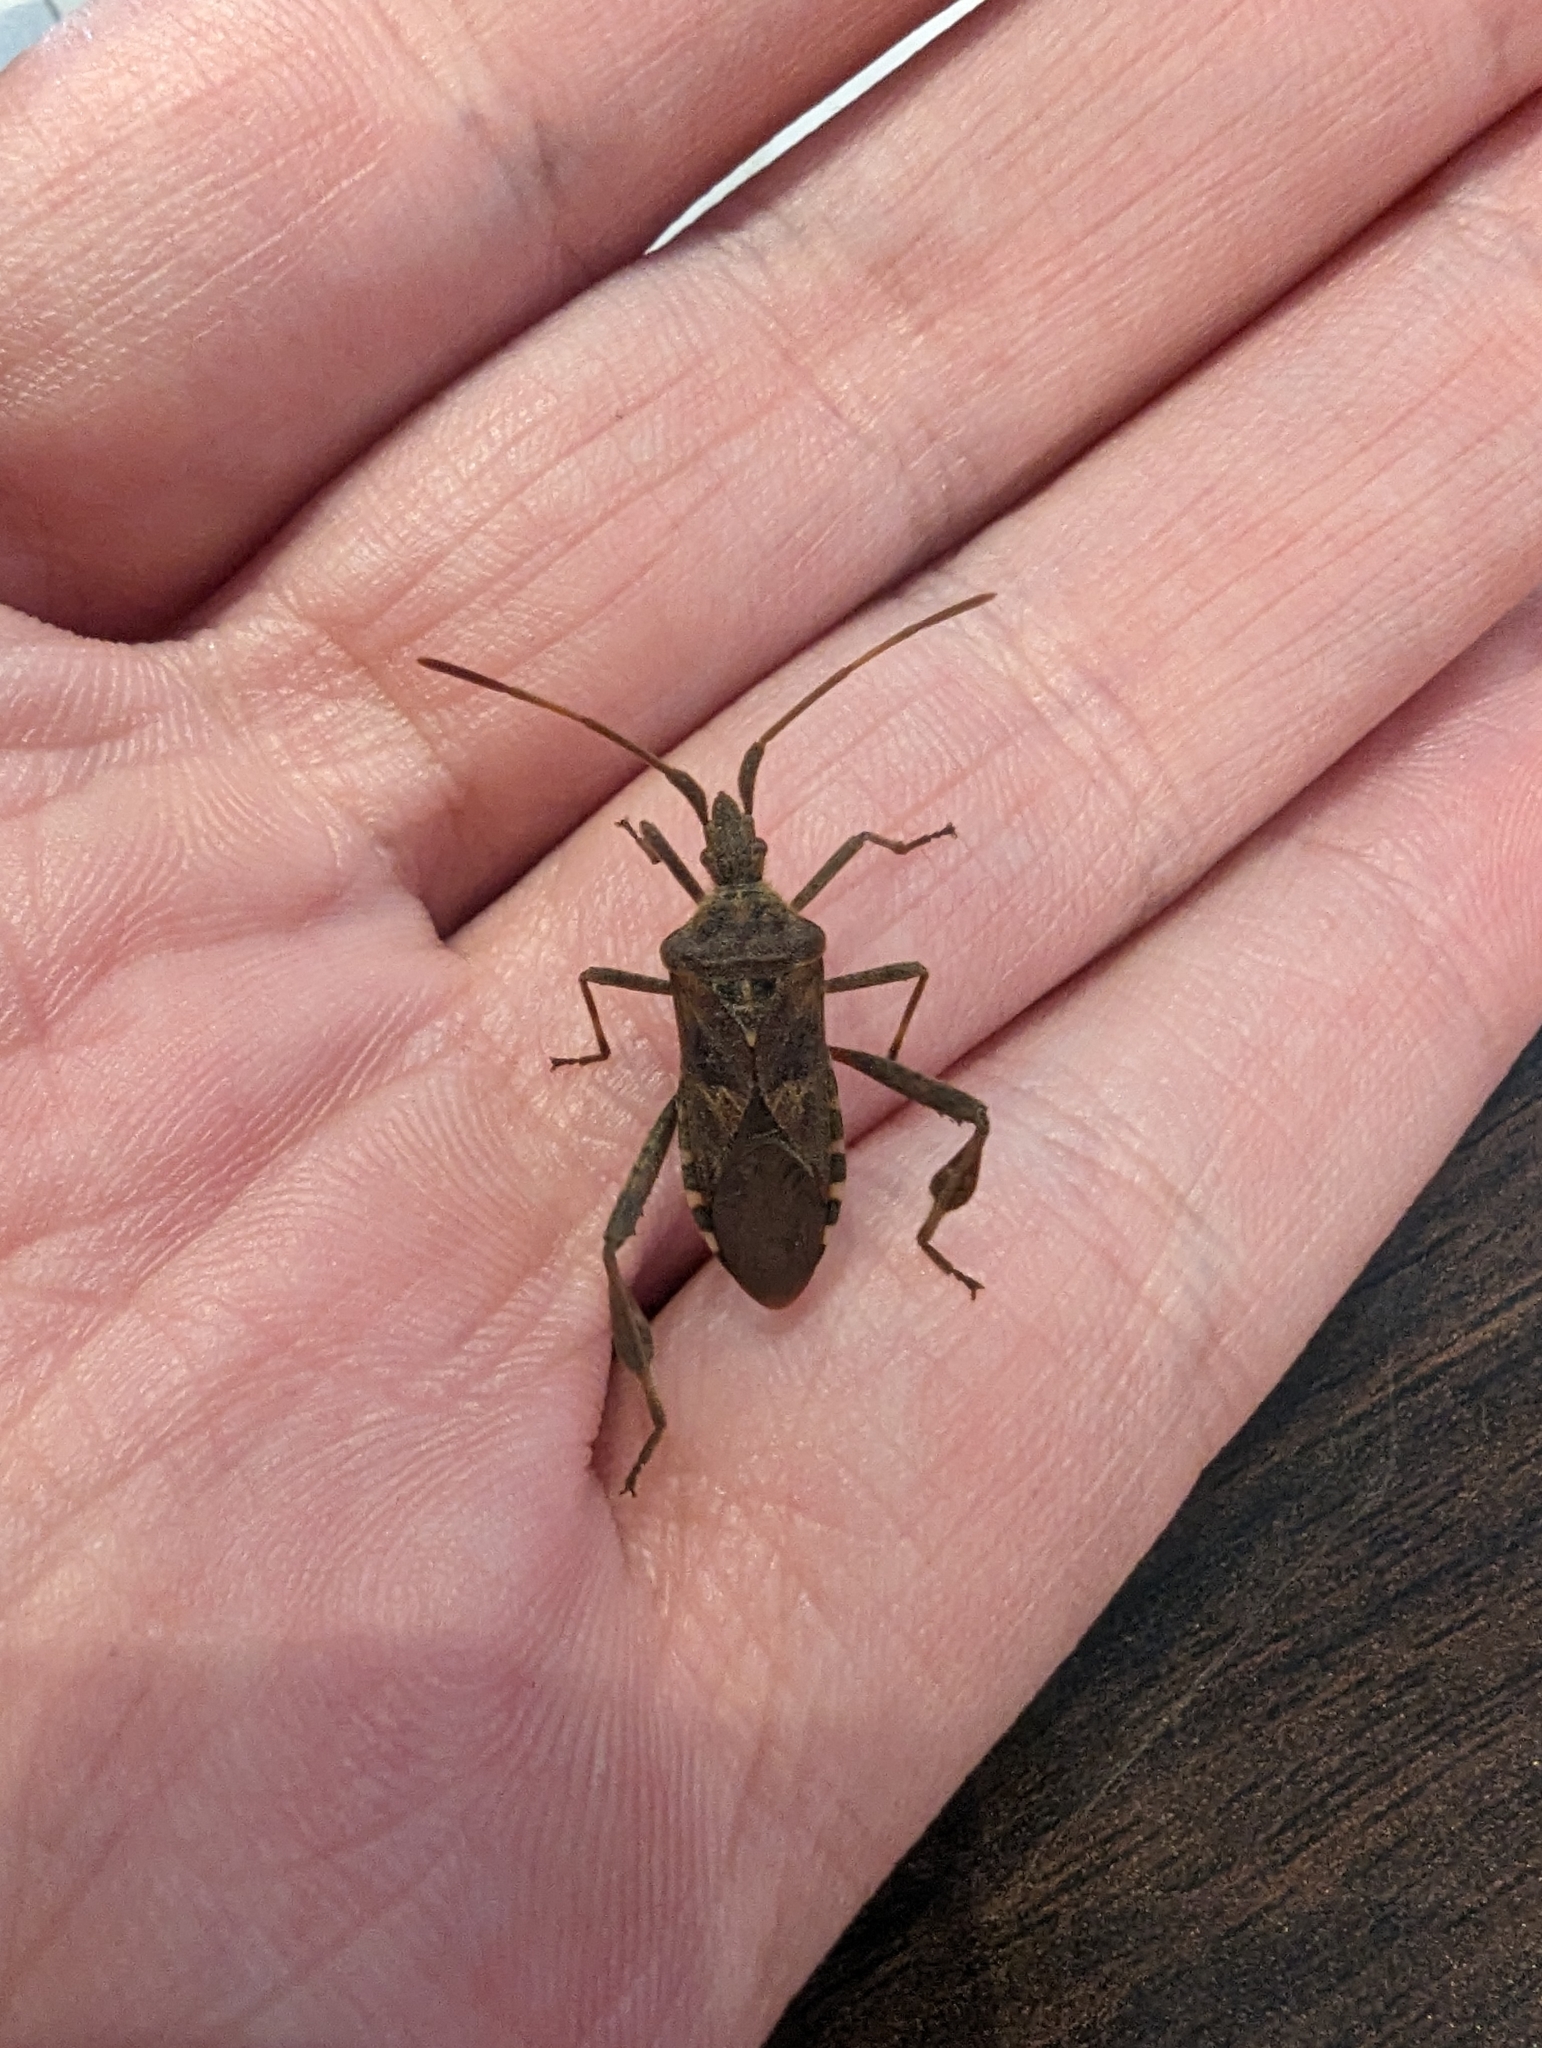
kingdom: Animalia
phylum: Arthropoda
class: Insecta
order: Hemiptera
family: Coreidae
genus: Leptoglossus
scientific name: Leptoglossus occidentalis
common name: Western conifer-seed bug
